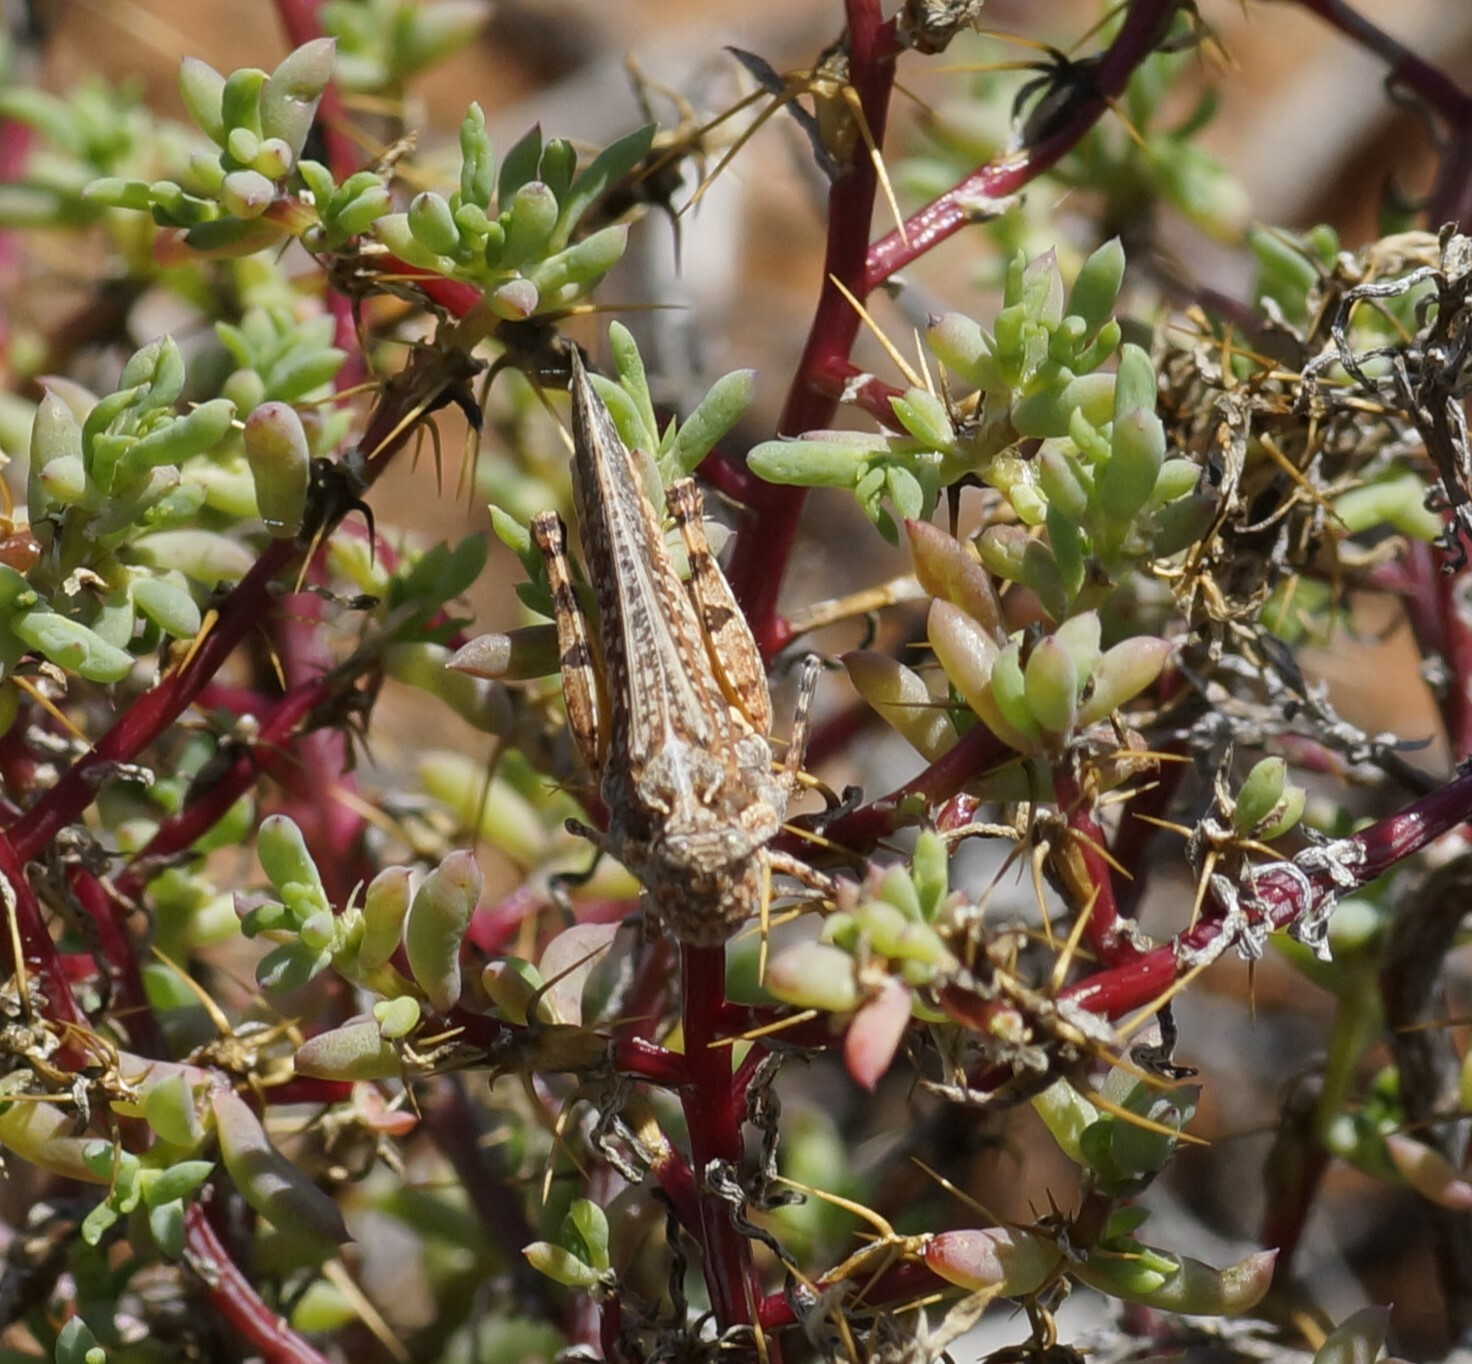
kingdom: Animalia
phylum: Arthropoda
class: Insecta
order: Orthoptera
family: Acrididae
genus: Pycnostictus
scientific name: Pycnostictus seriatus
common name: Common bandwing
